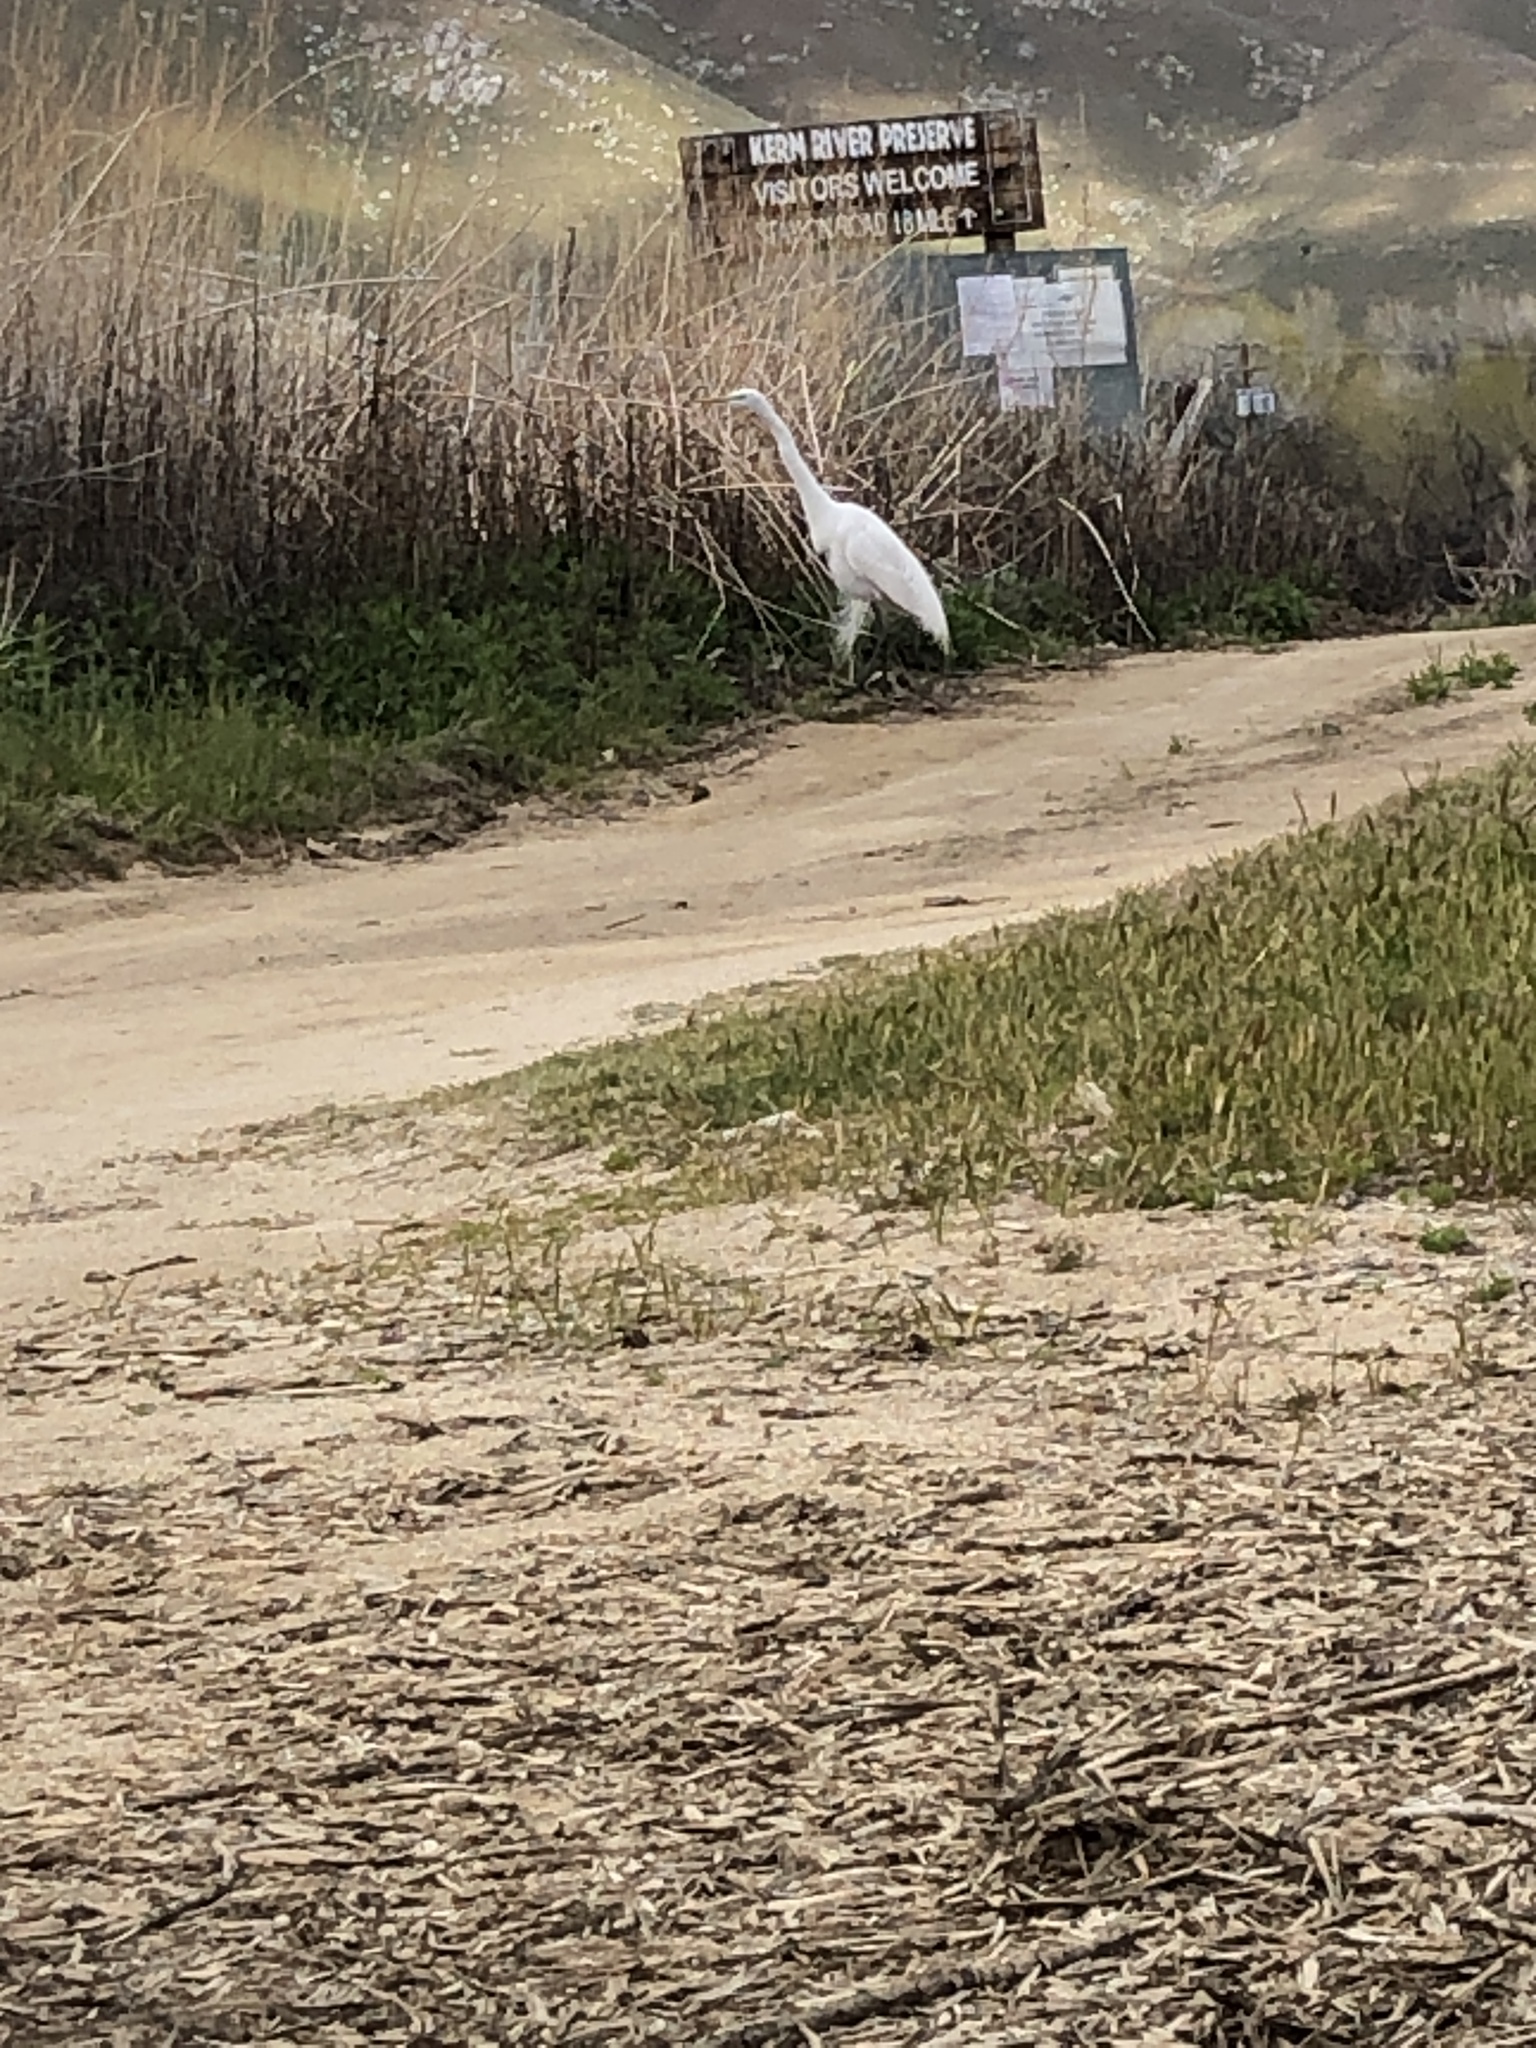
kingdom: Animalia
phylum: Chordata
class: Aves
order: Pelecaniformes
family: Ardeidae
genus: Ardea
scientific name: Ardea alba
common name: Great egret
